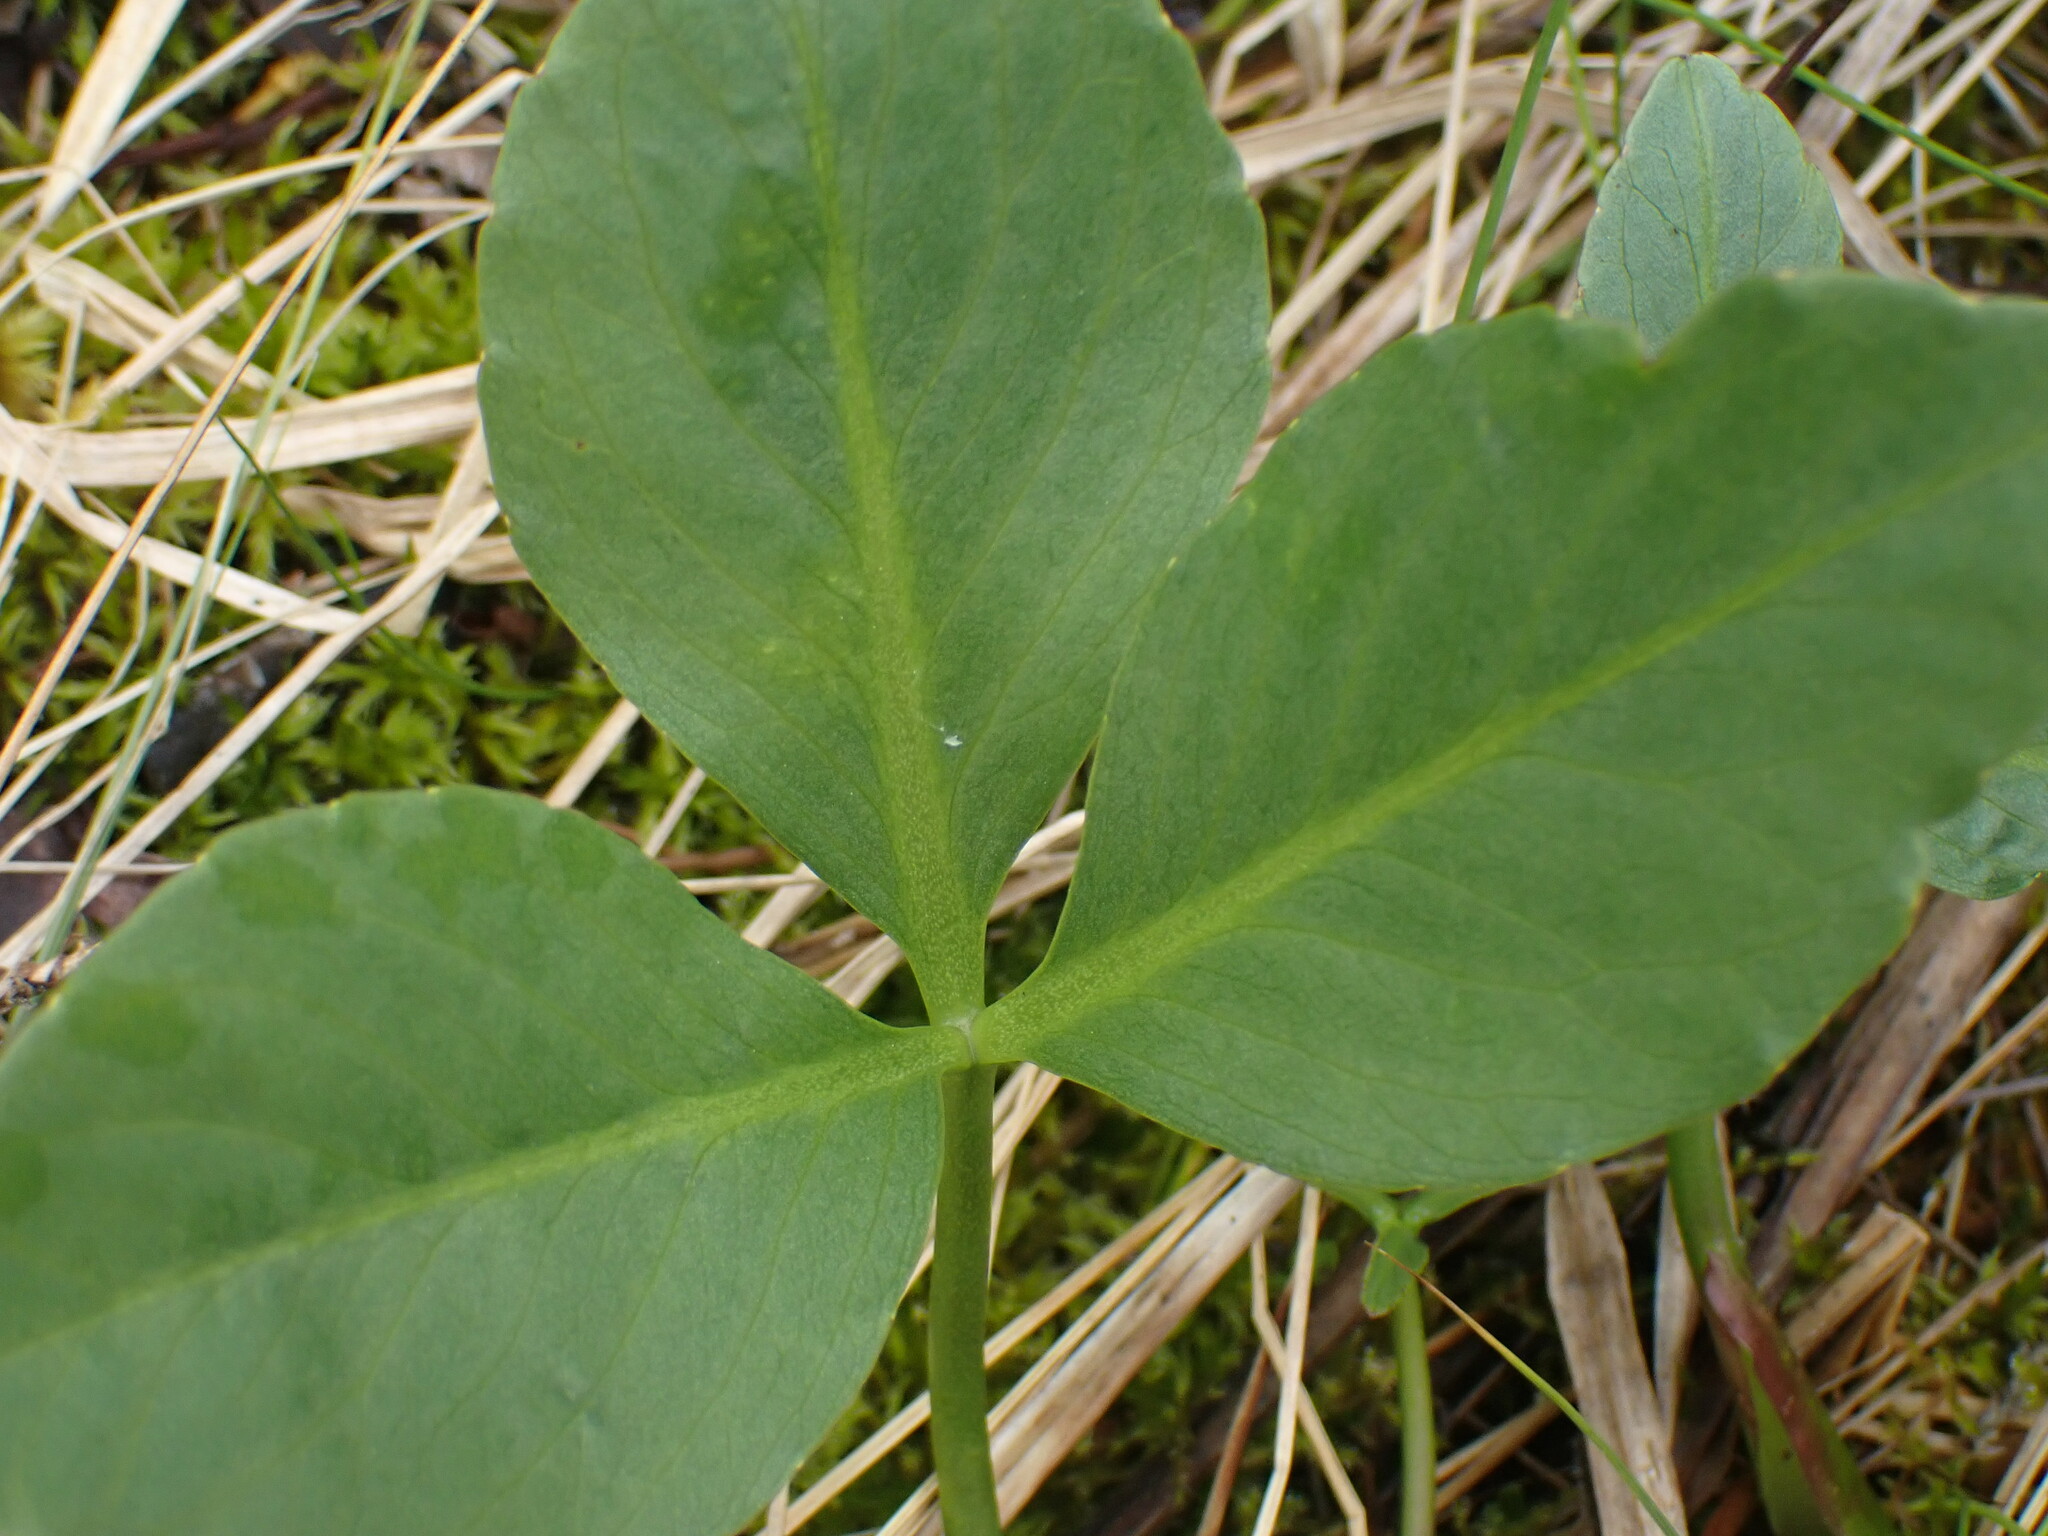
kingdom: Plantae
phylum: Tracheophyta
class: Magnoliopsida
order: Asterales
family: Menyanthaceae
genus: Menyanthes
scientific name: Menyanthes trifoliata
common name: Bogbean
